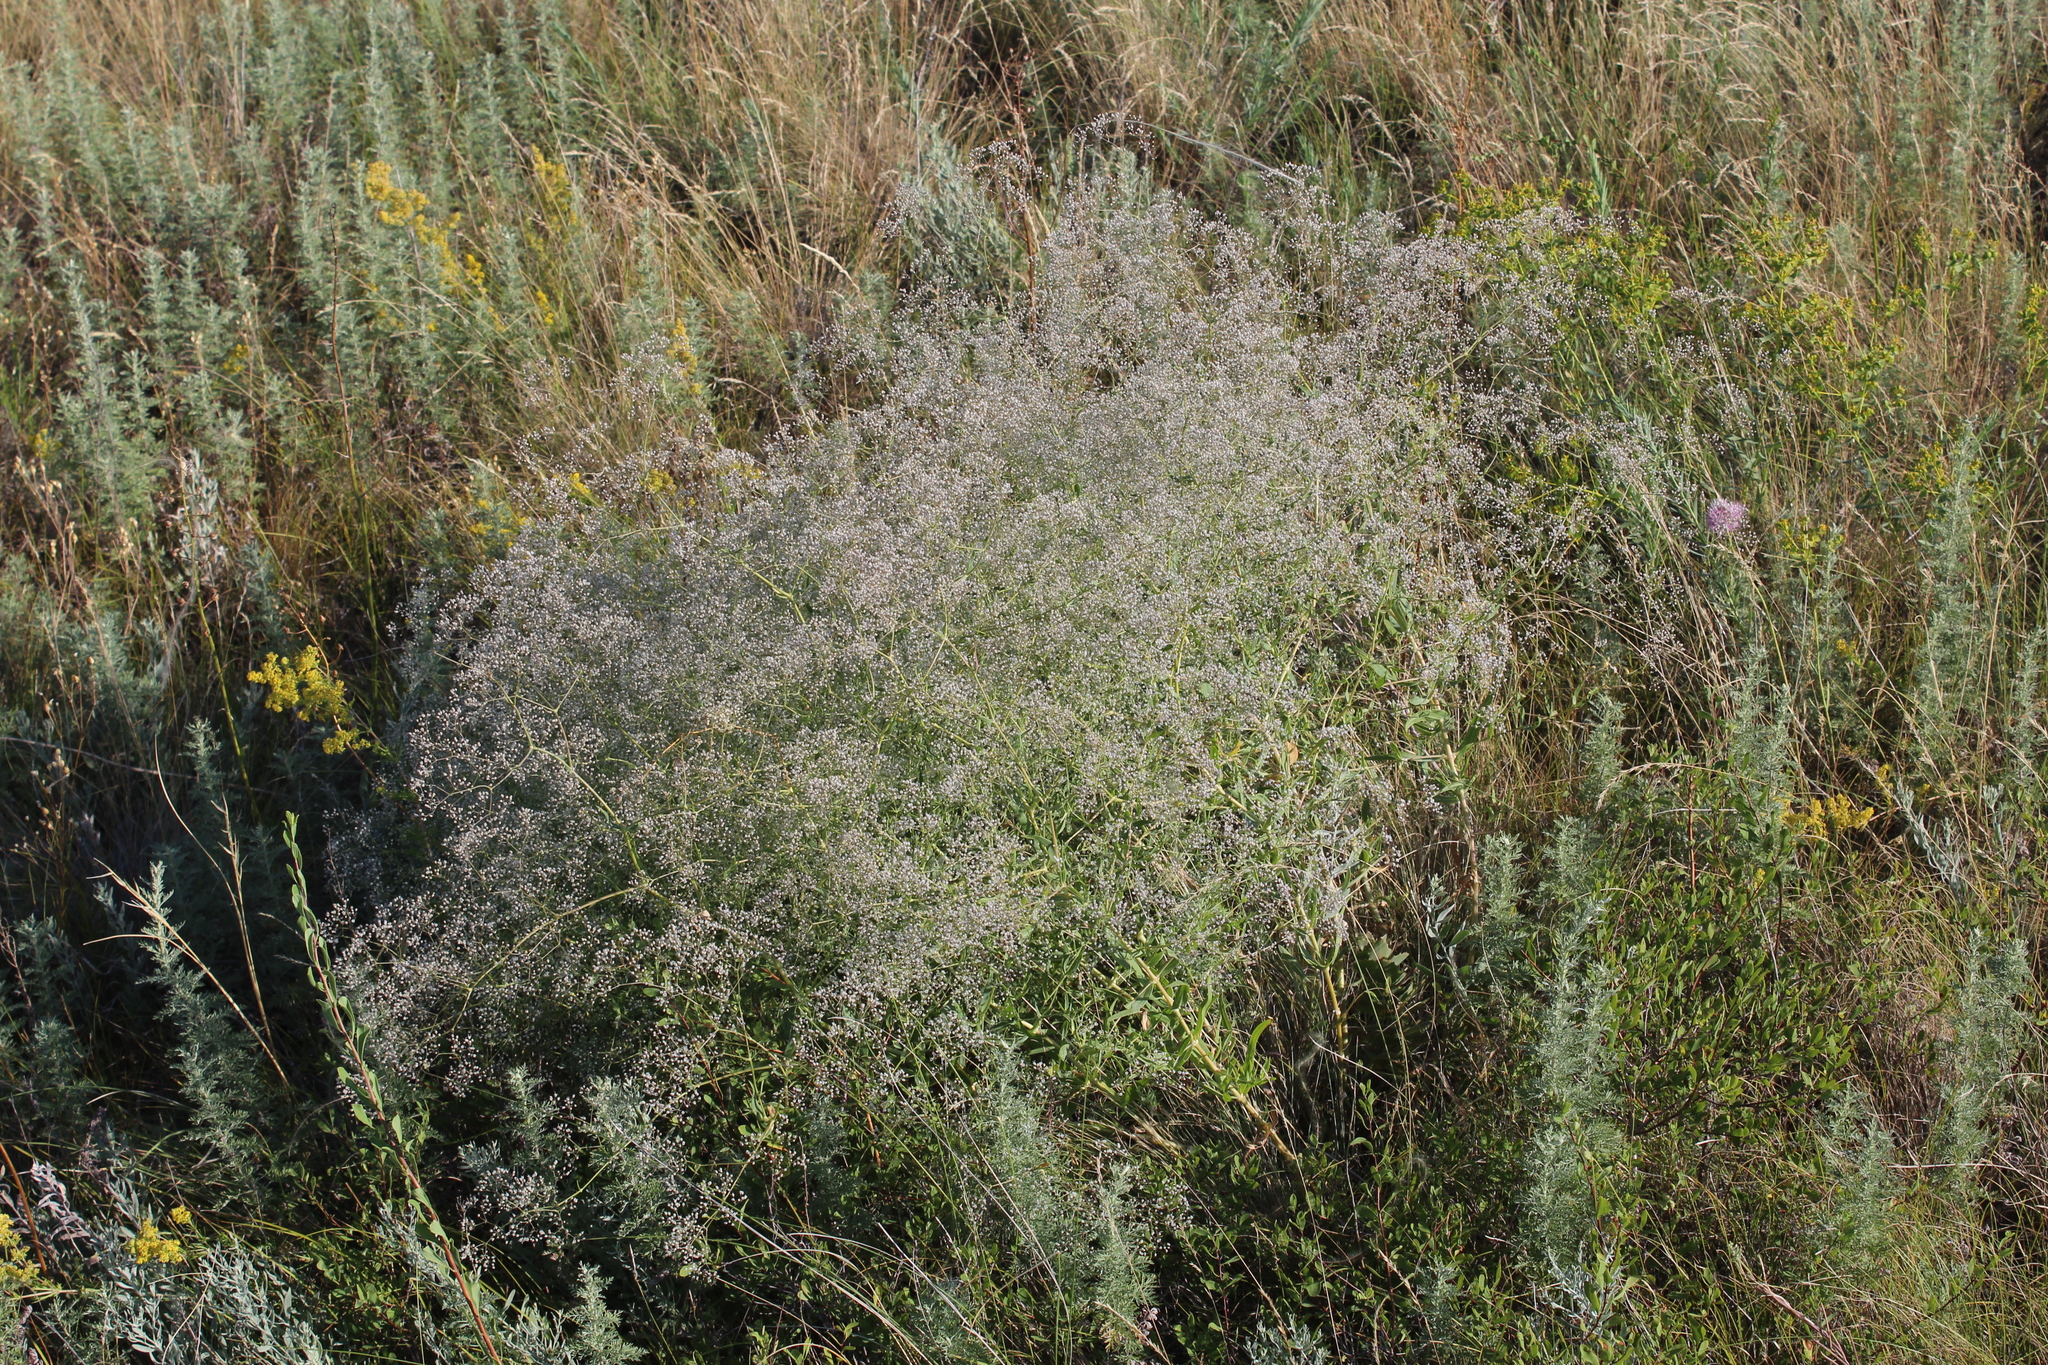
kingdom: Plantae
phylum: Tracheophyta
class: Magnoliopsida
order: Caryophyllales
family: Caryophyllaceae
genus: Gypsophila
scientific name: Gypsophila paniculata
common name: Baby's-breath
